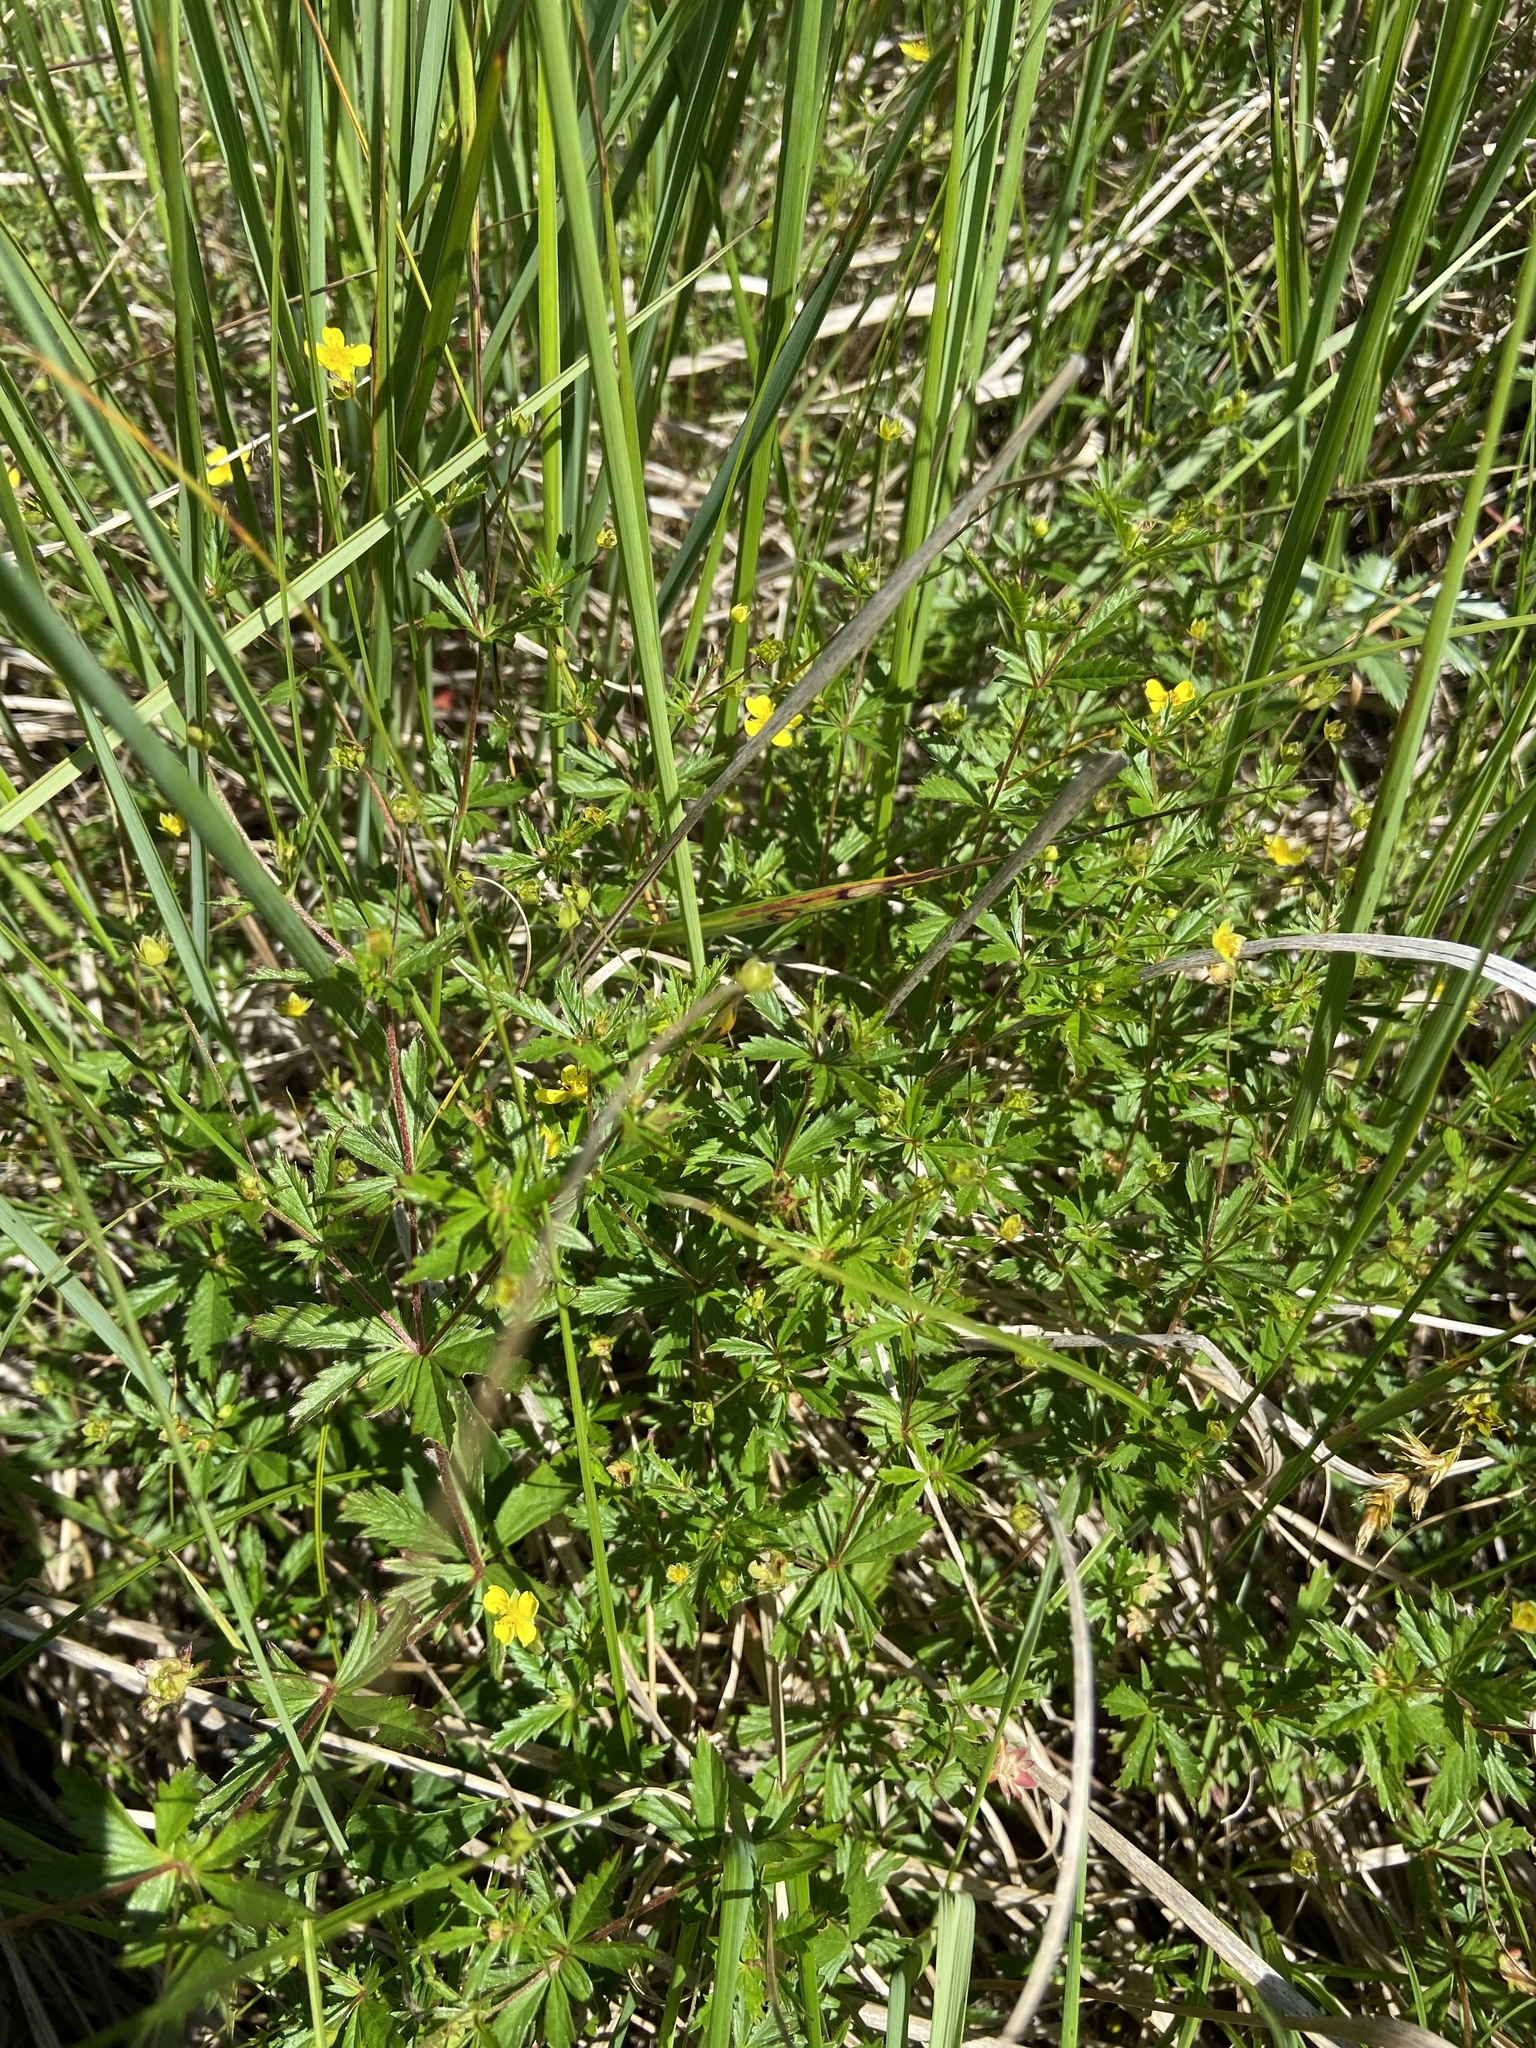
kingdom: Plantae
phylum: Tracheophyta
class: Magnoliopsida
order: Rosales
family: Rosaceae
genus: Potentilla
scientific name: Potentilla erecta
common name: Tormentil
